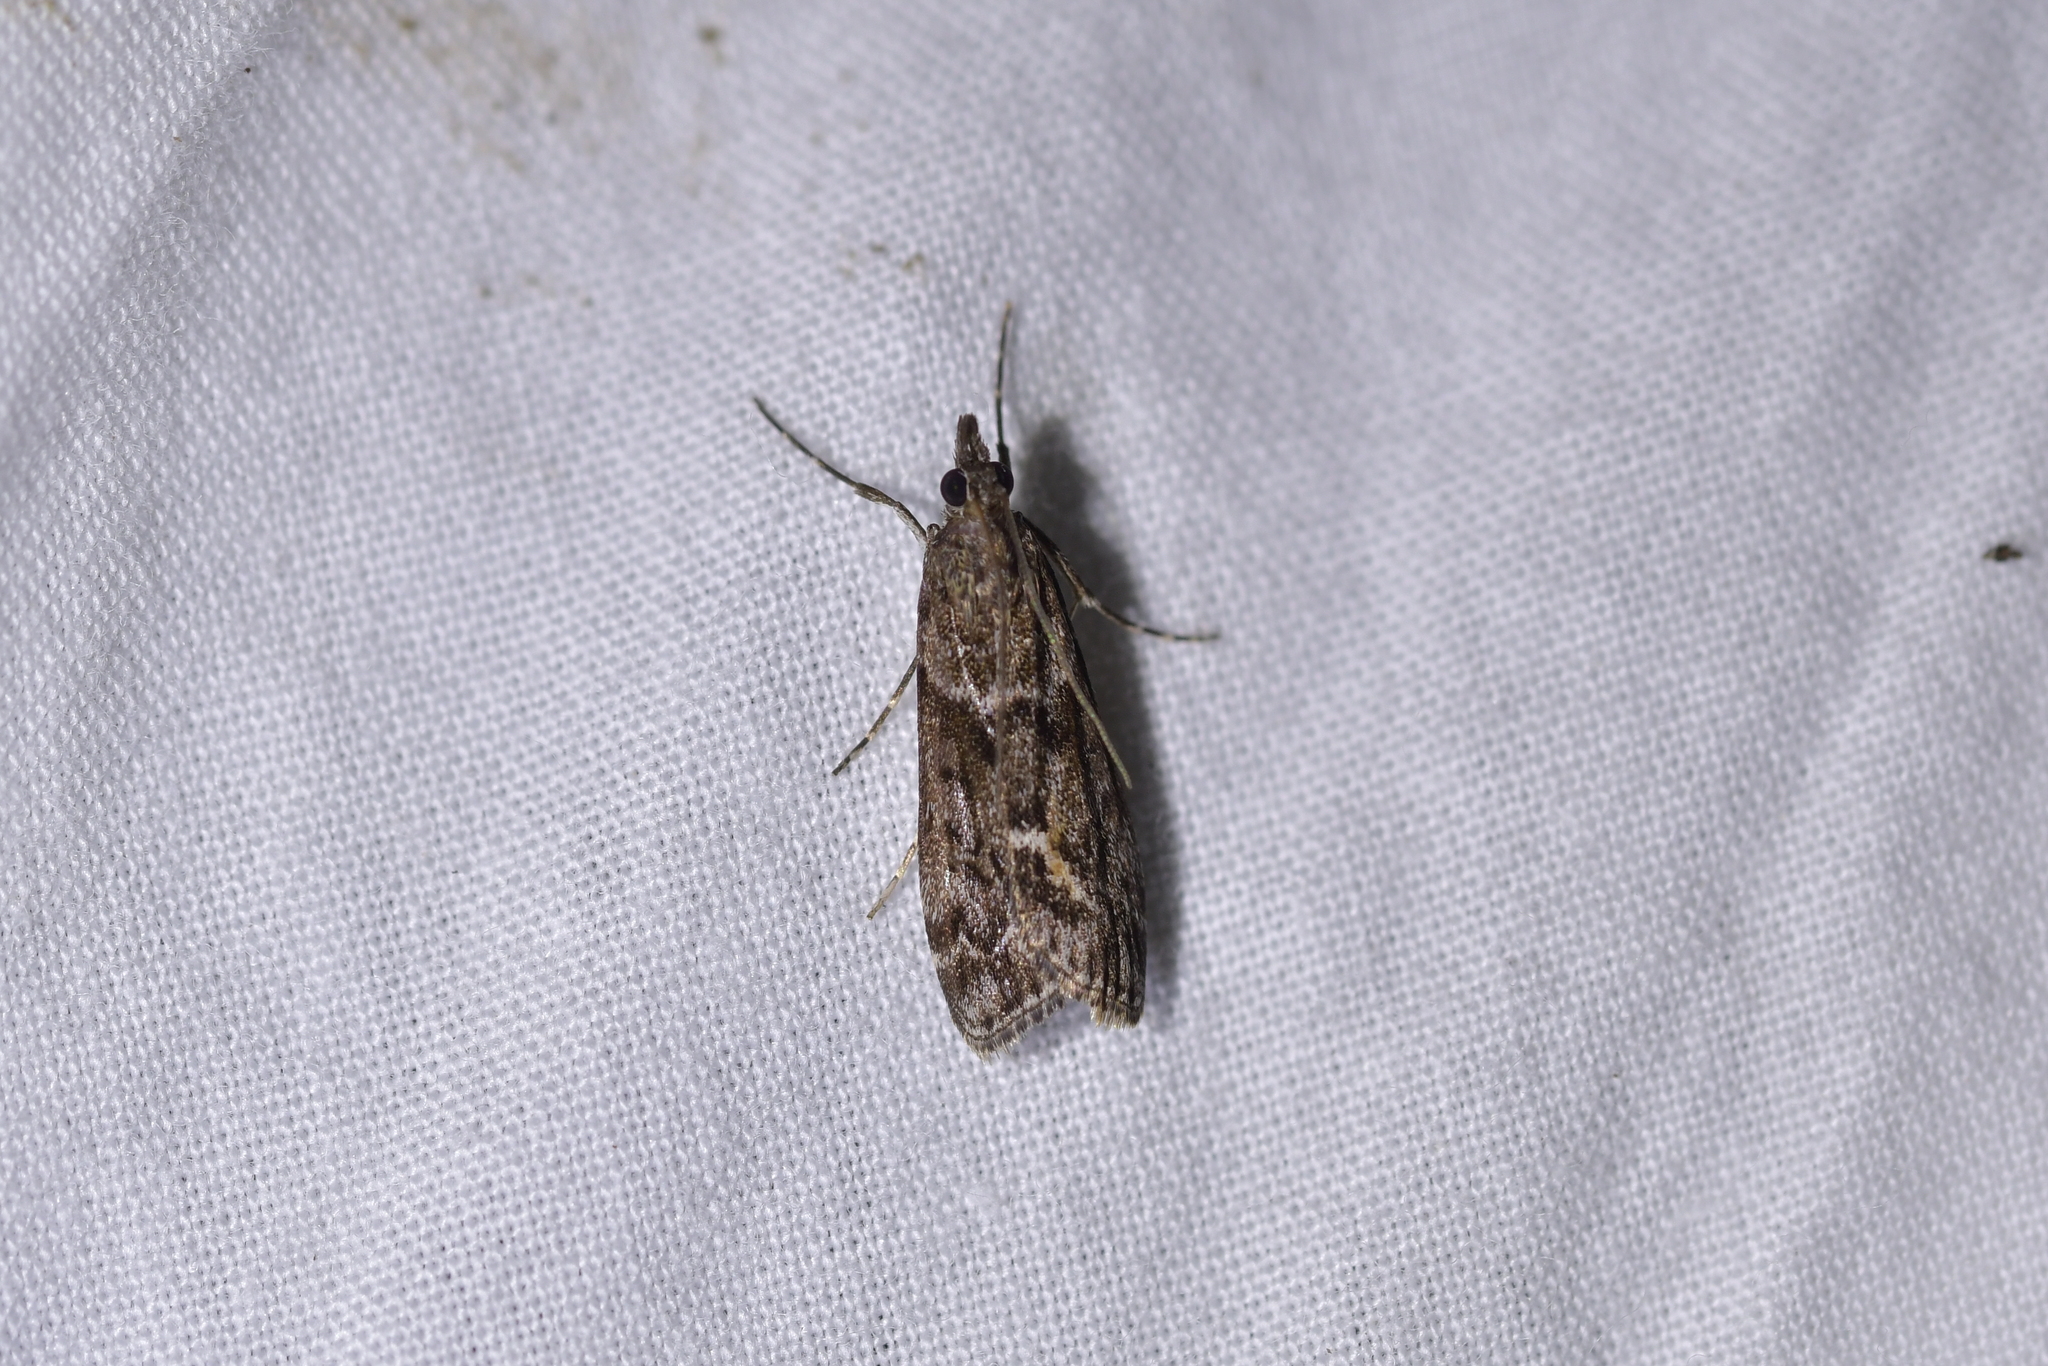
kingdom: Animalia
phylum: Arthropoda
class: Insecta
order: Lepidoptera
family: Crambidae
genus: Eudonia
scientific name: Eudonia submarginalis
